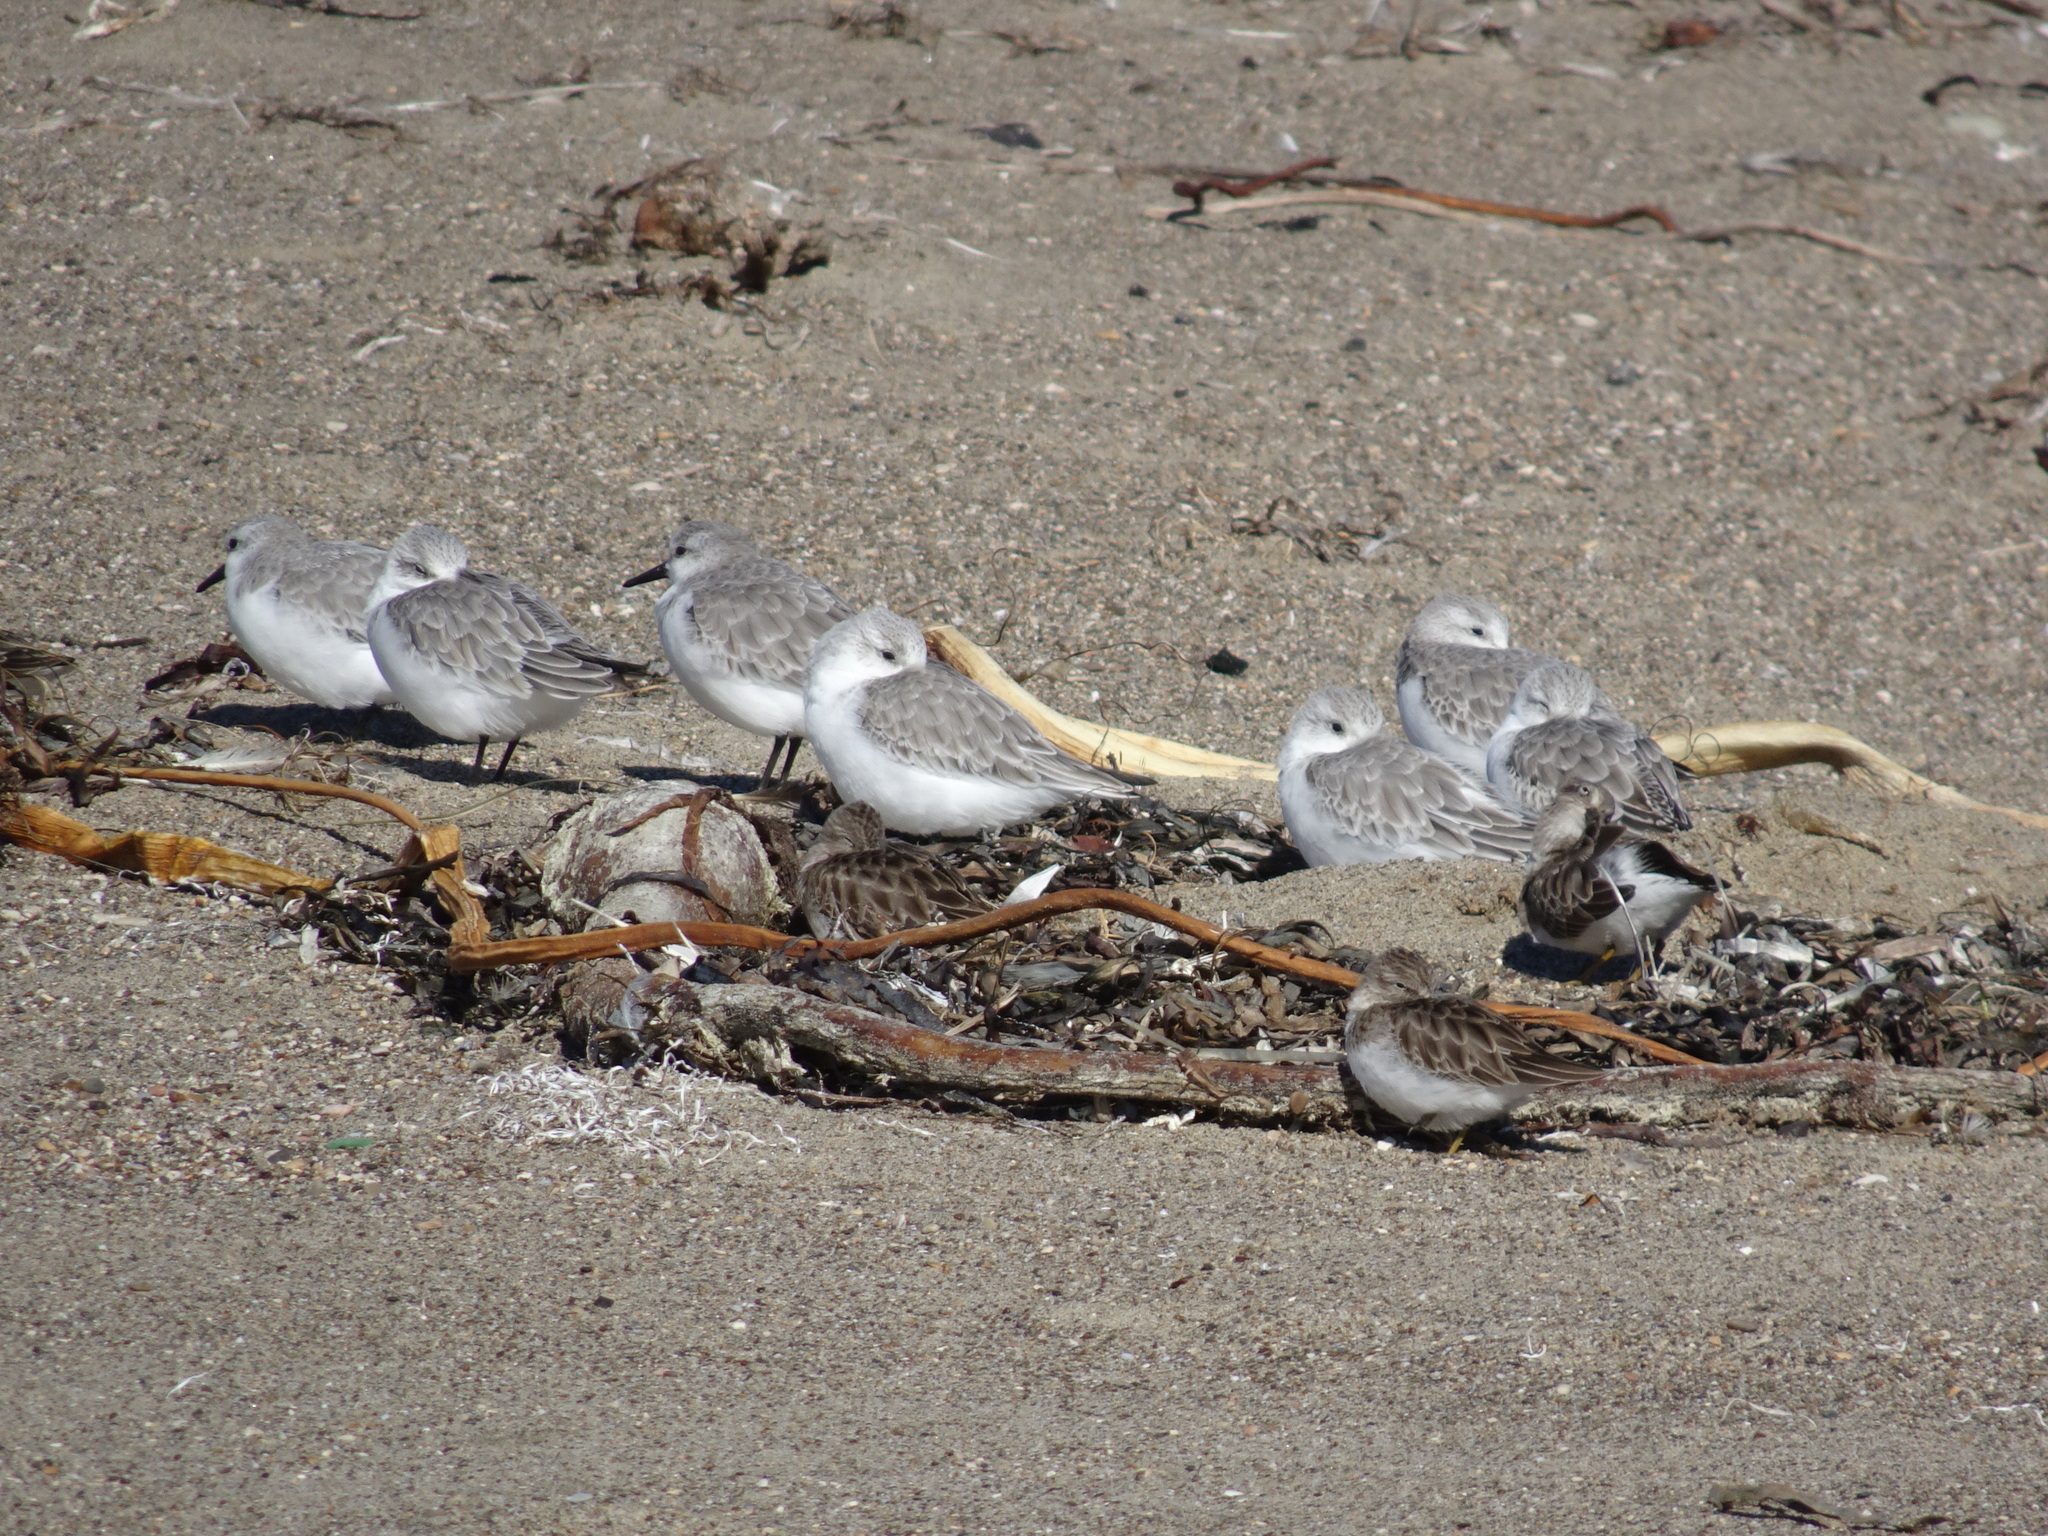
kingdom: Animalia
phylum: Chordata
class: Aves
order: Charadriiformes
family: Scolopacidae
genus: Calidris
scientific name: Calidris alba
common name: Sanderling
